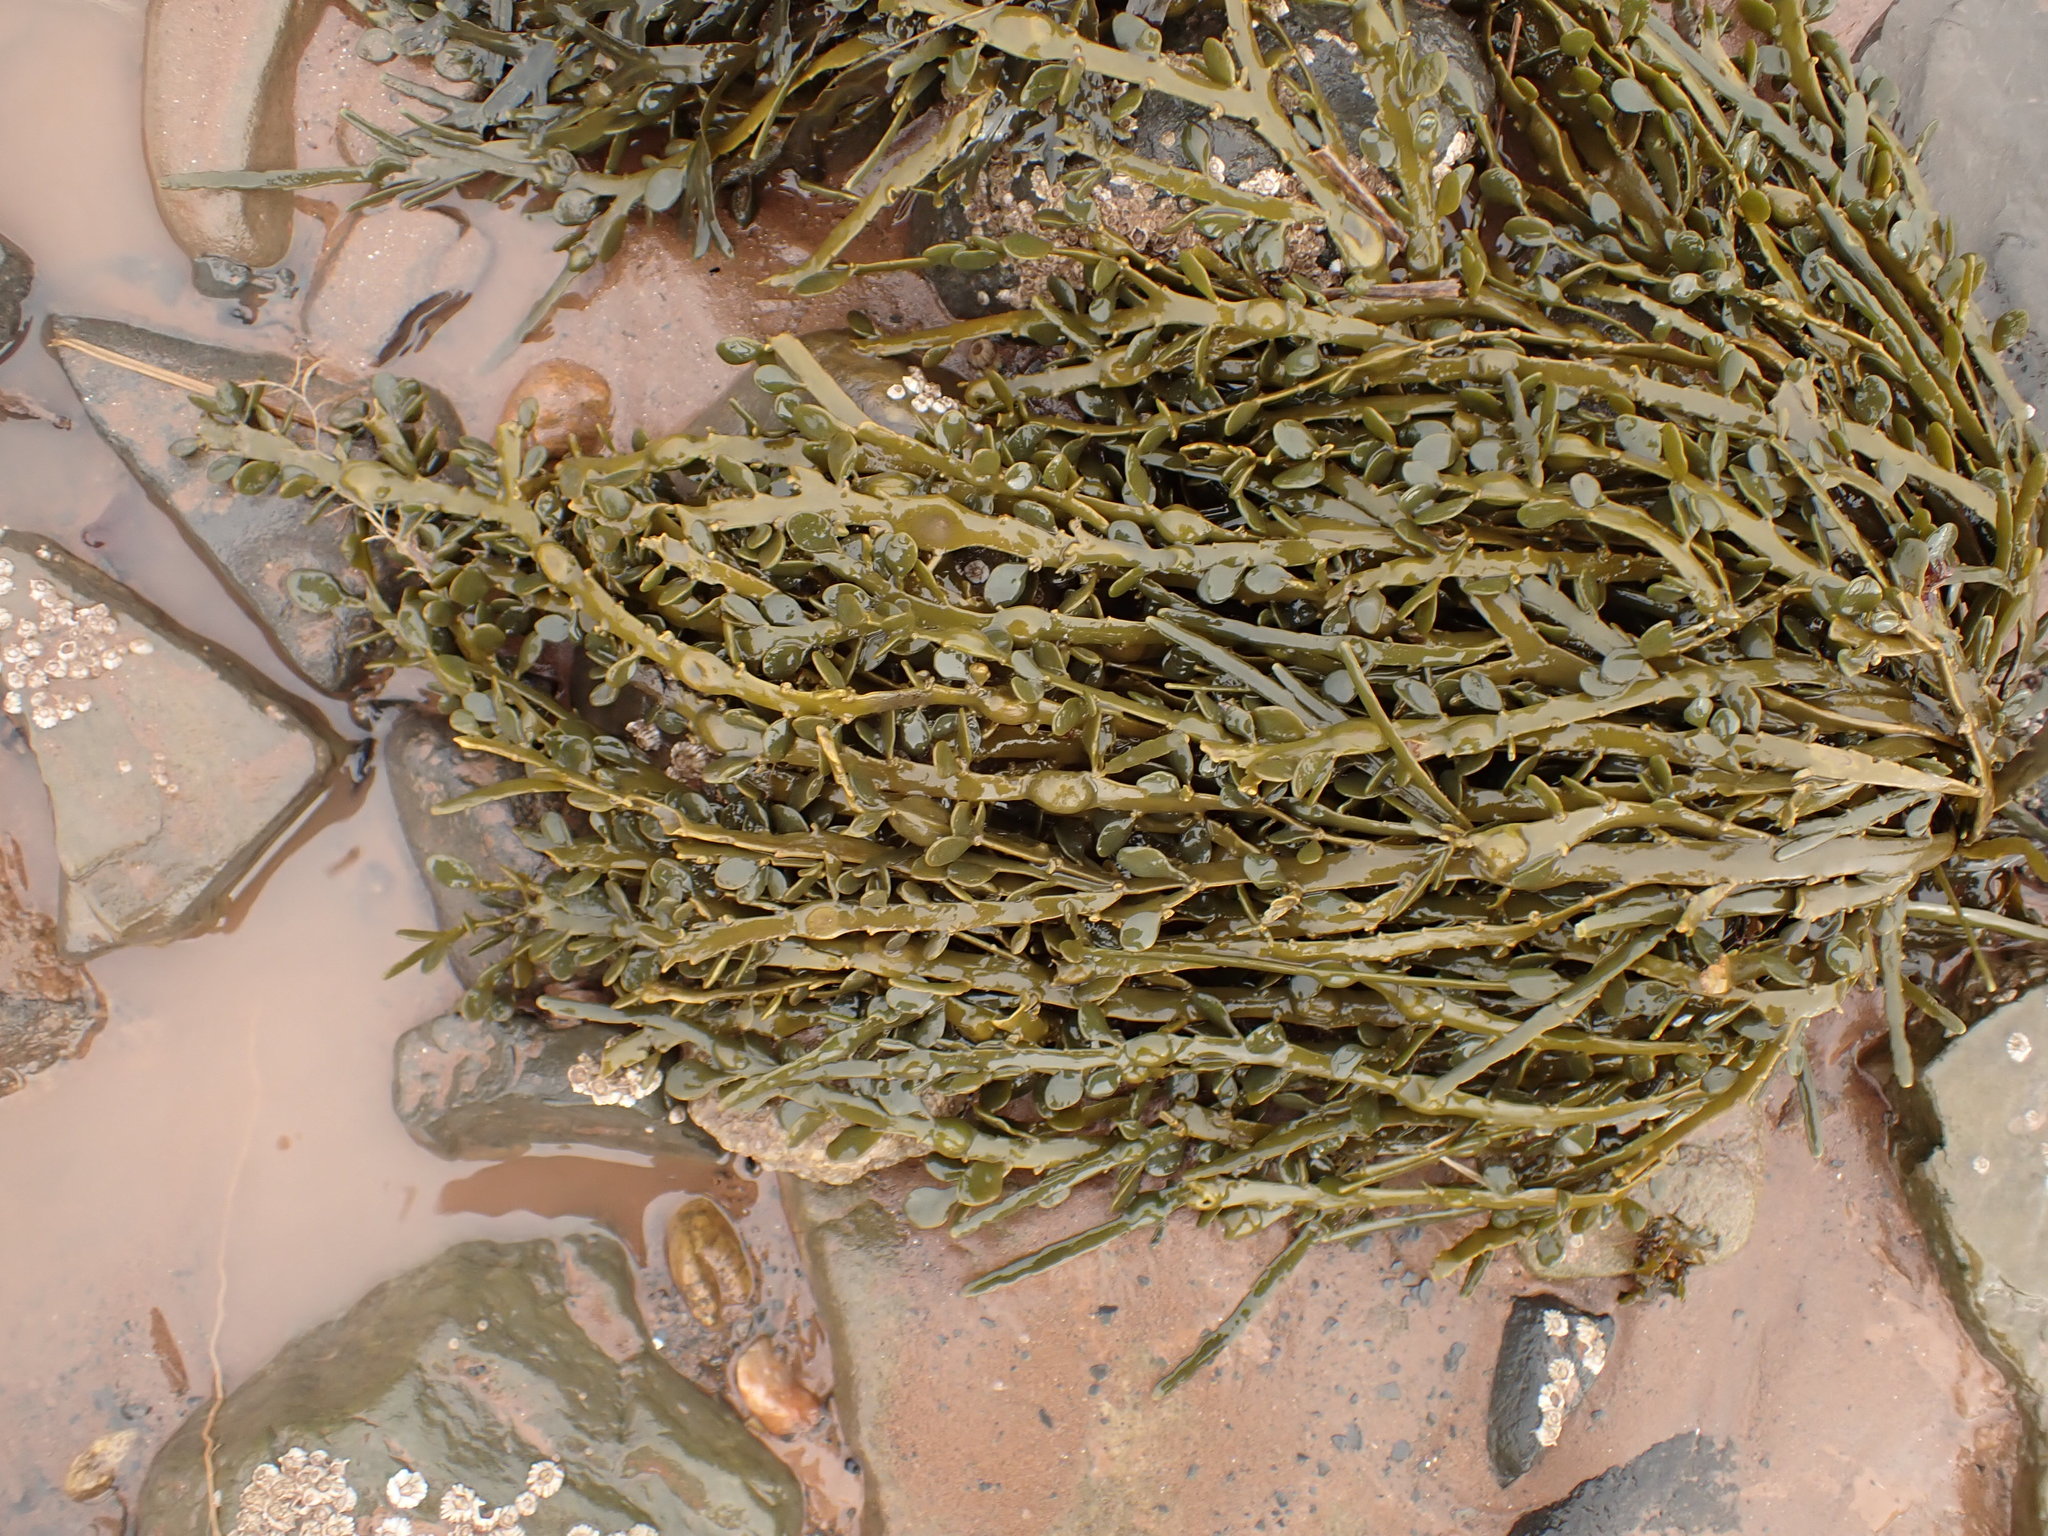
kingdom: Chromista
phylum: Ochrophyta
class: Phaeophyceae
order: Fucales
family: Fucaceae
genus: Ascophyllum
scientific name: Ascophyllum nodosum
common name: Knotted wrack
